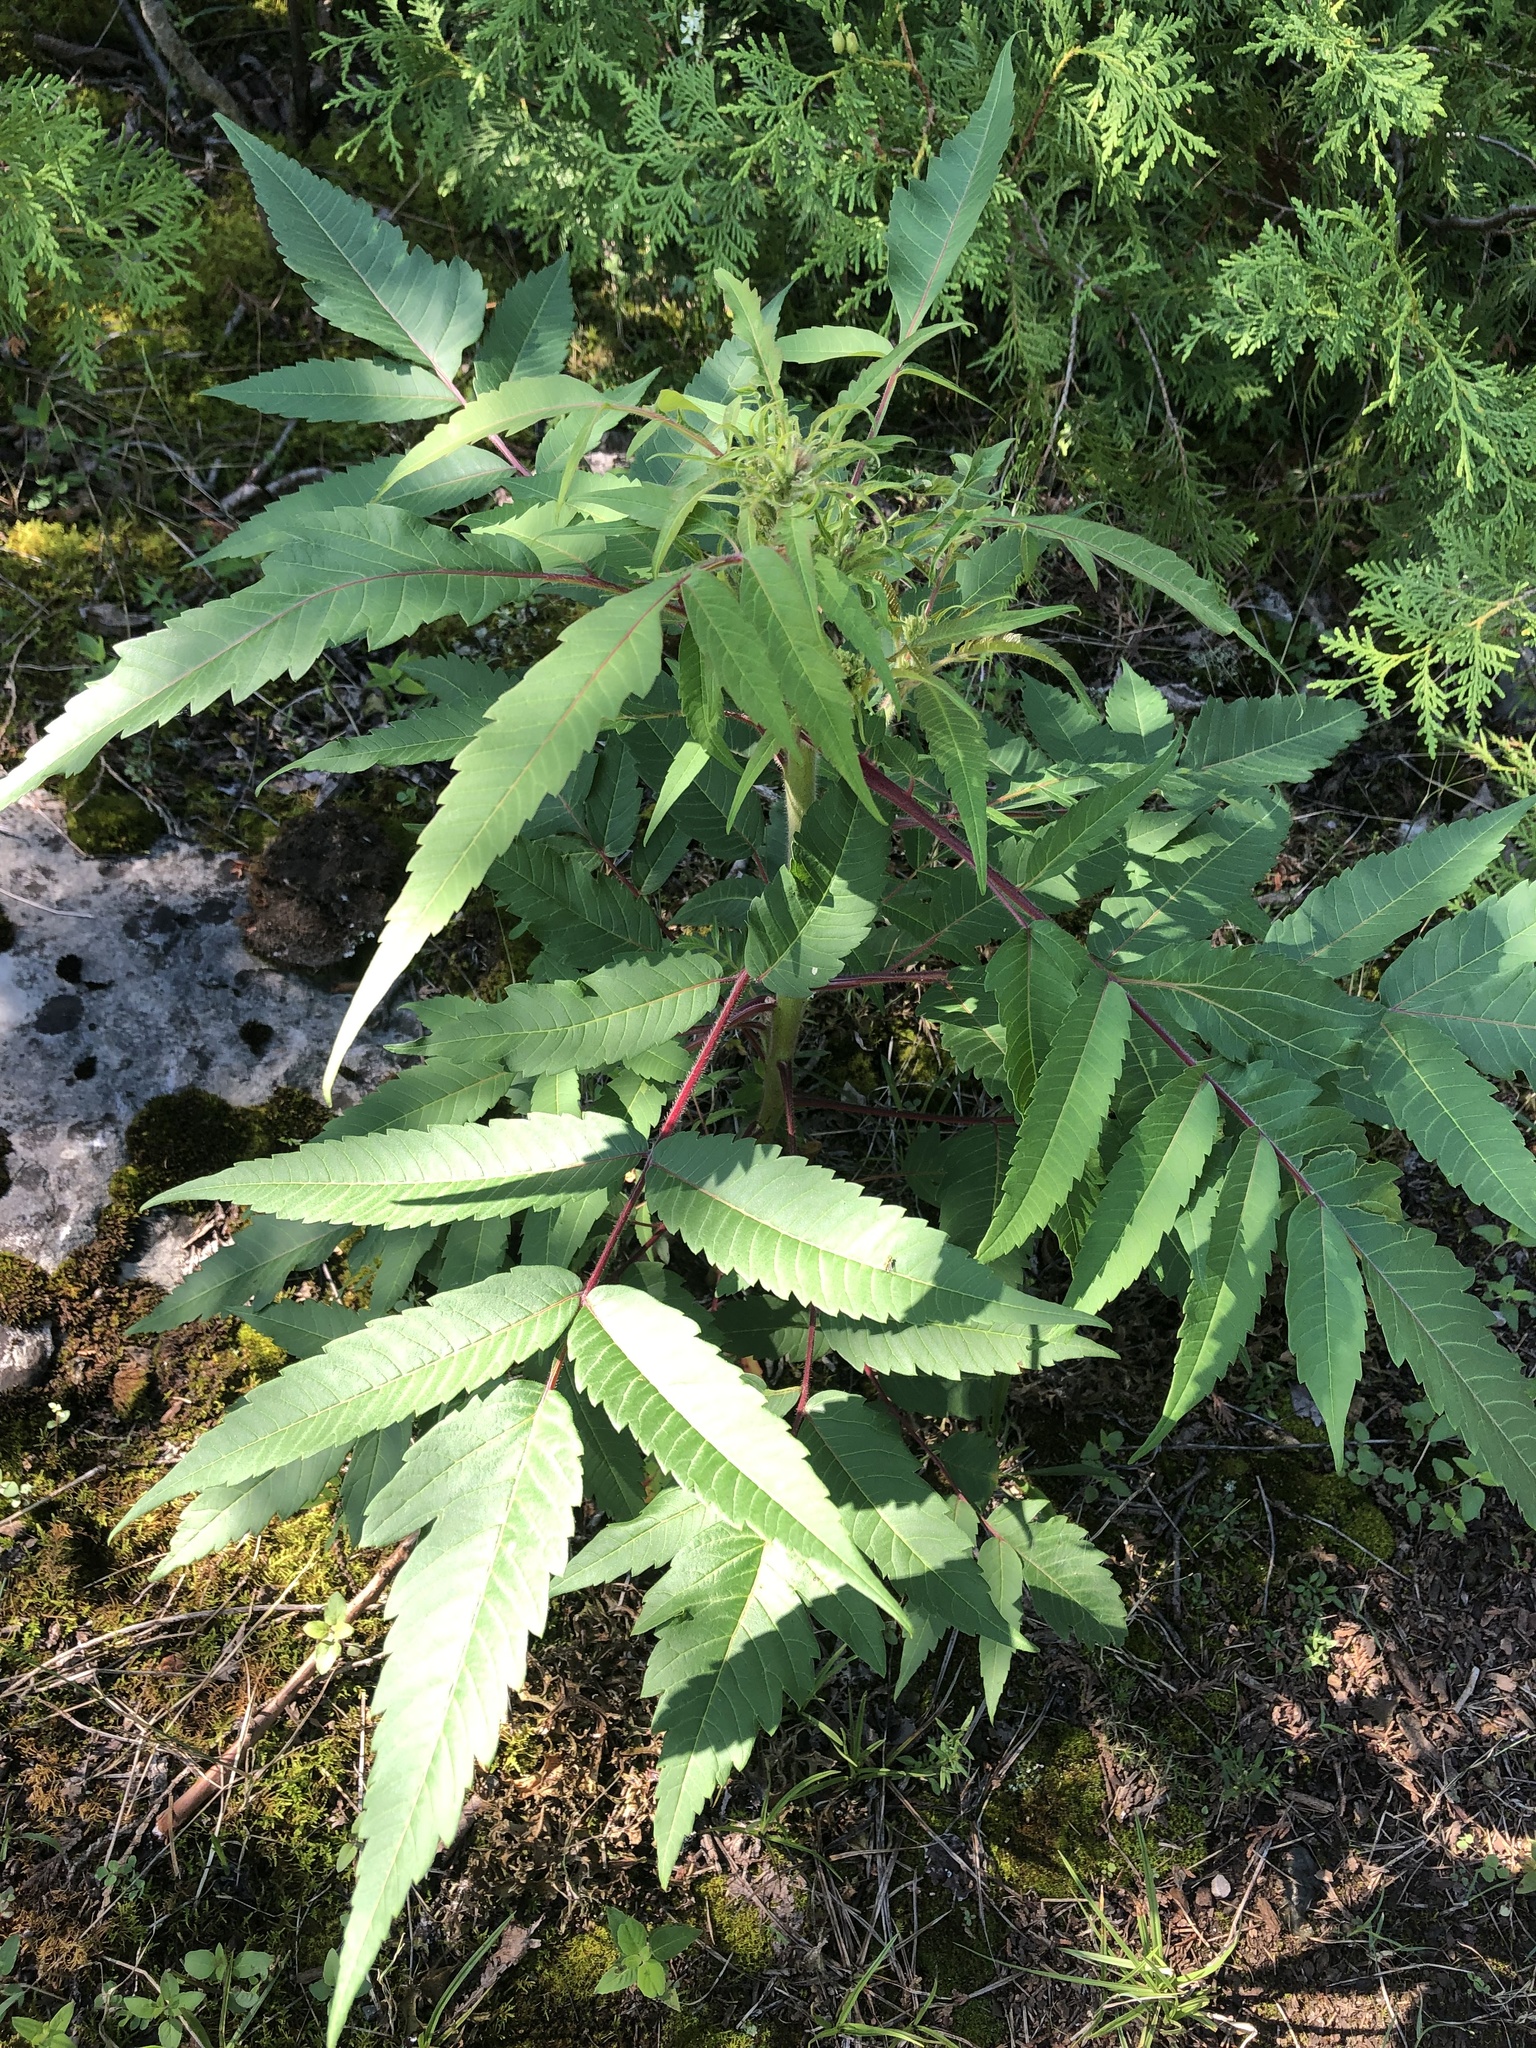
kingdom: Plantae
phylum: Tracheophyta
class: Magnoliopsida
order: Sapindales
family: Anacardiaceae
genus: Rhus
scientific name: Rhus typhina
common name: Staghorn sumac
